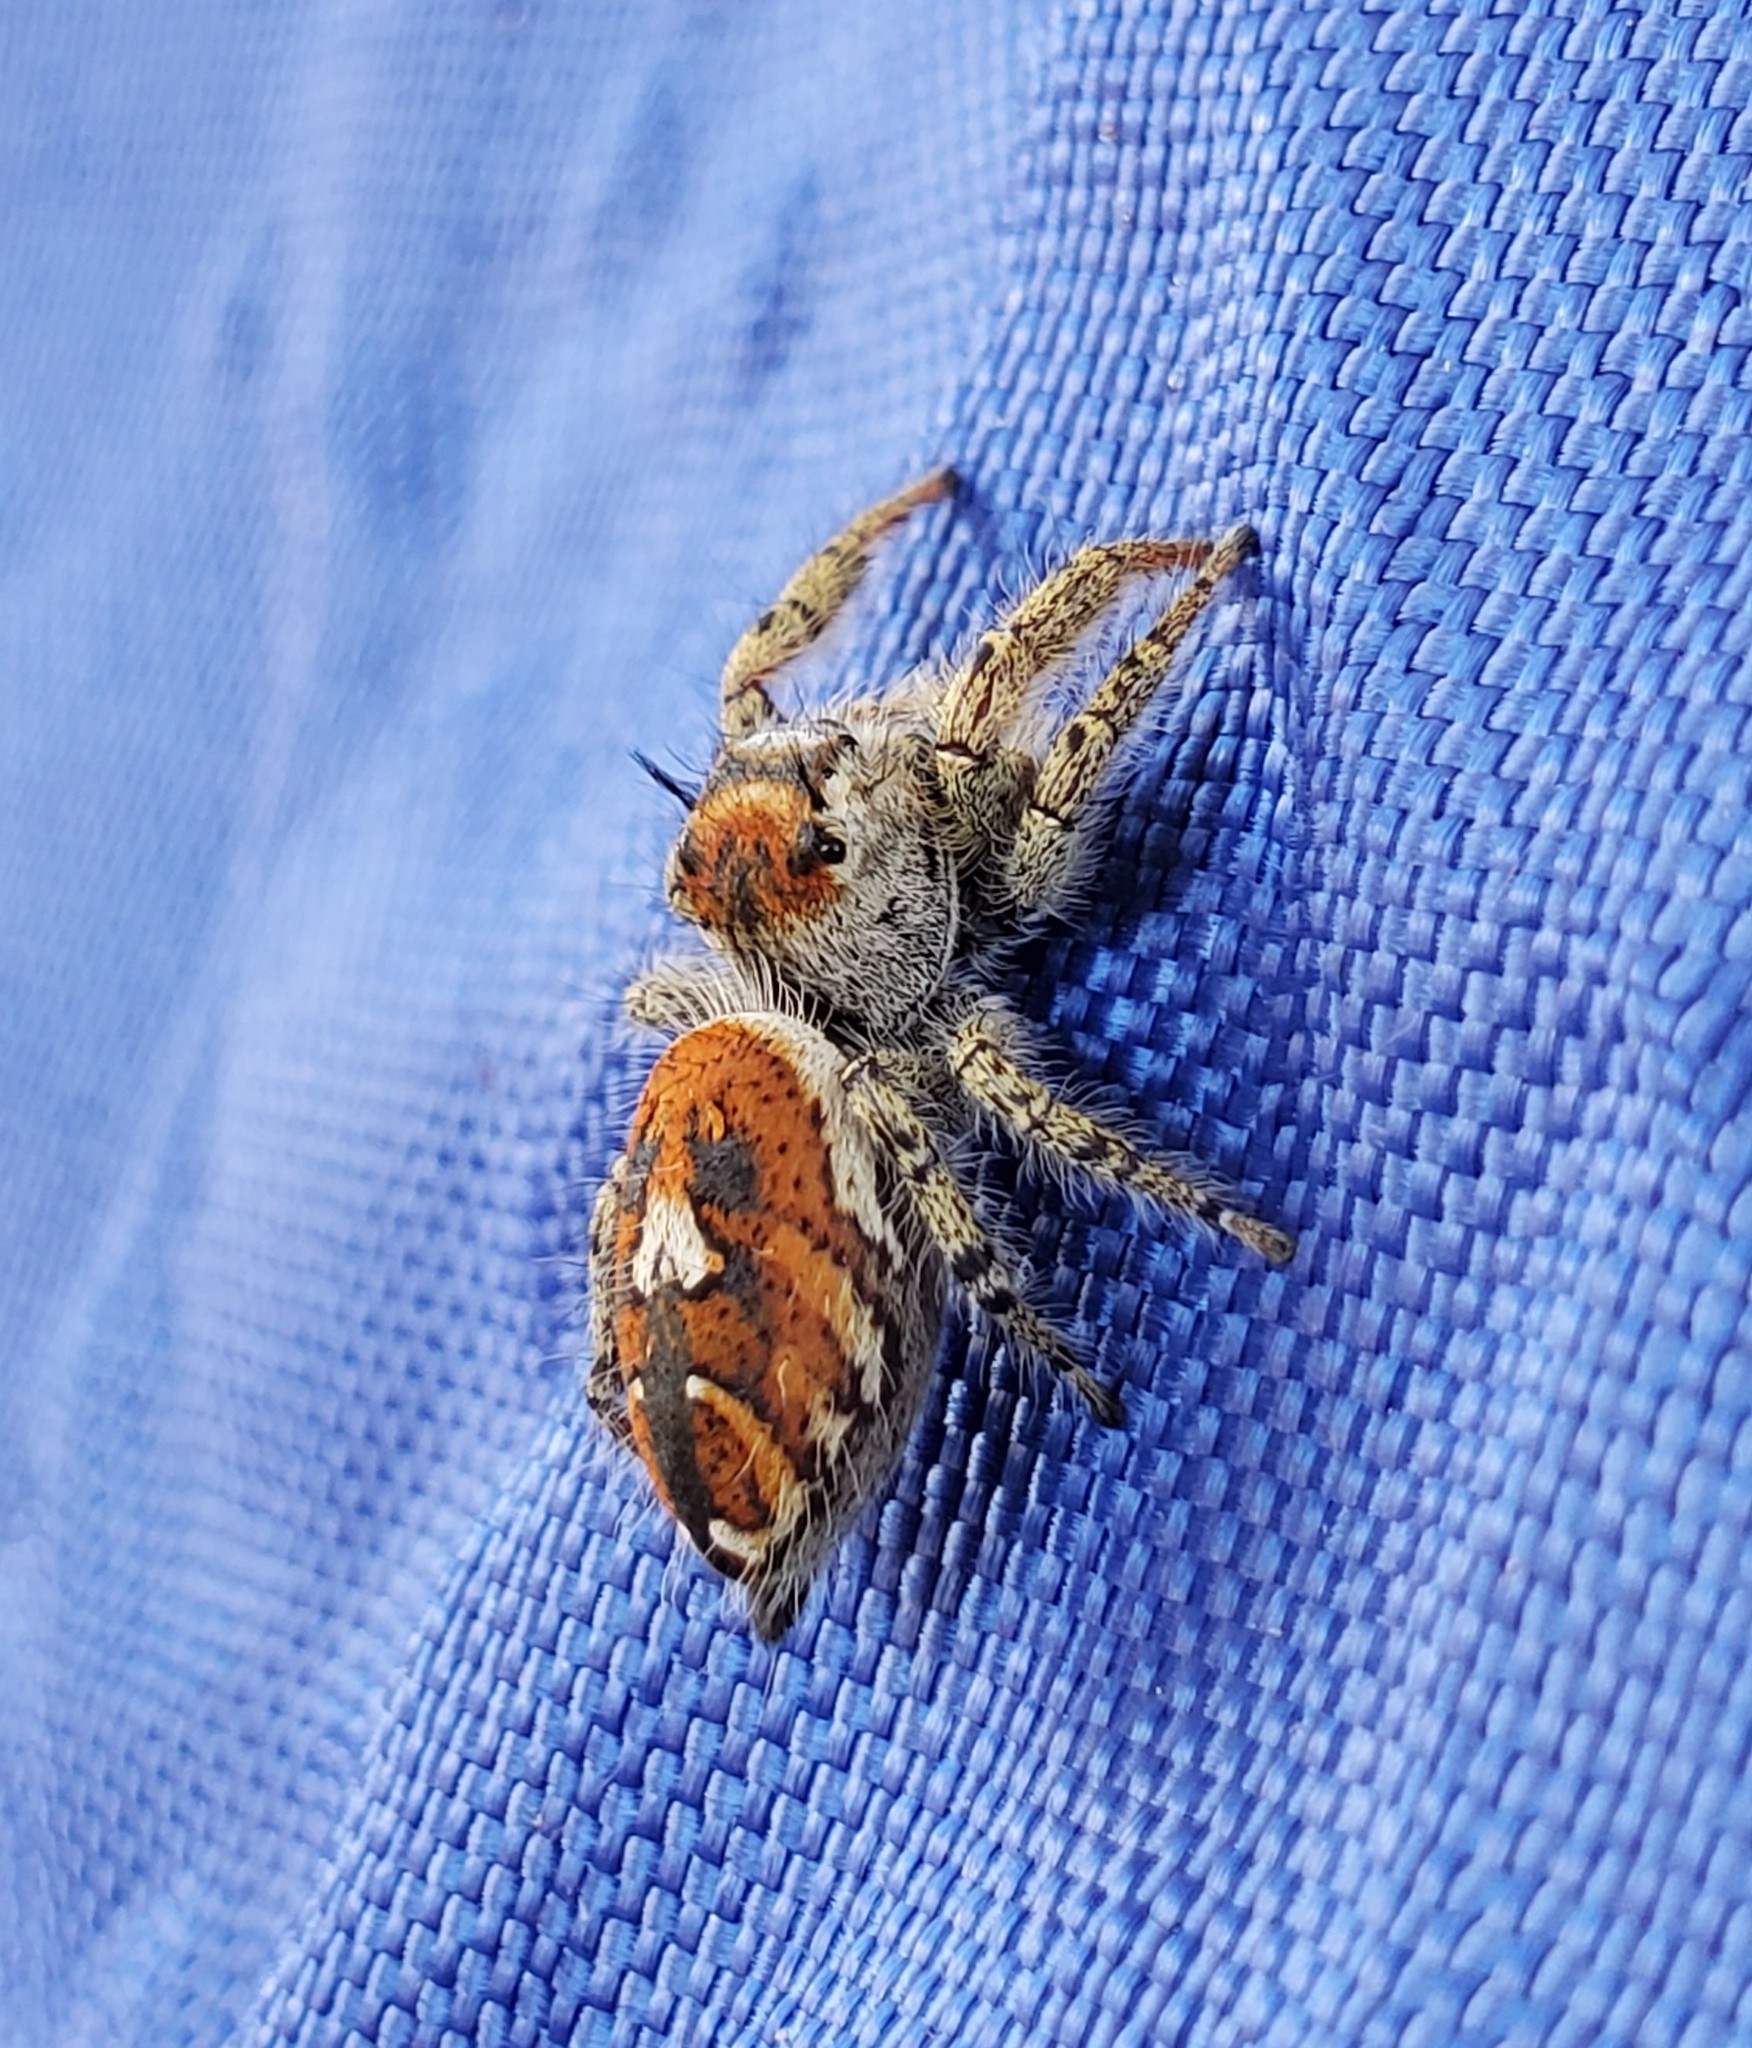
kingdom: Animalia
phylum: Arthropoda
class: Arachnida
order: Araneae
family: Salticidae
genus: Phidippus
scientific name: Phidippus arizonensis
